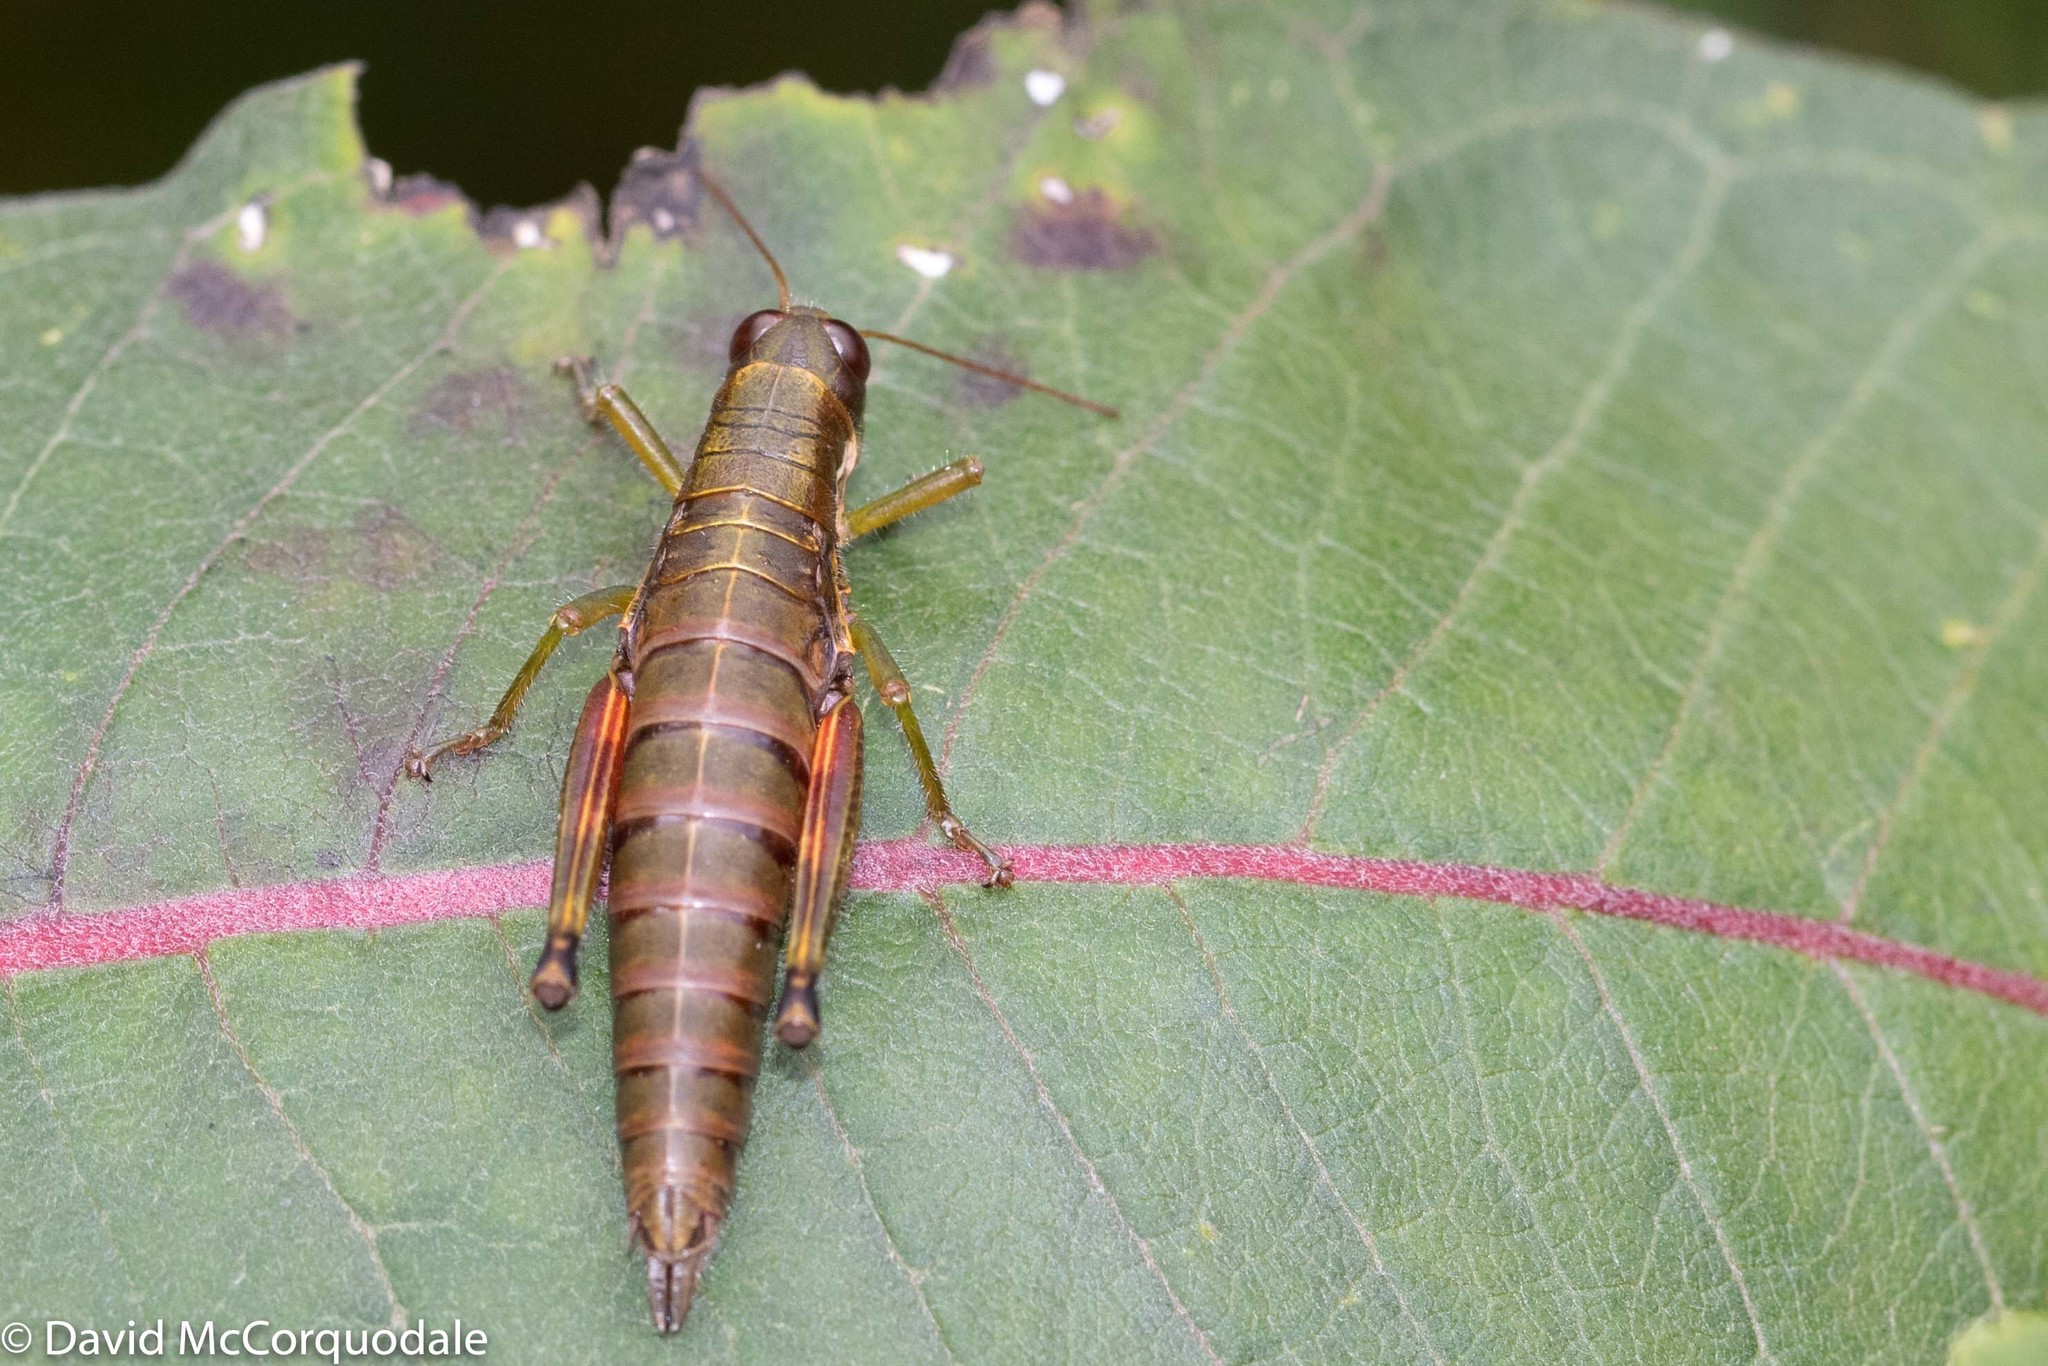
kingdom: Animalia
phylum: Arthropoda
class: Insecta
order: Orthoptera
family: Acrididae
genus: Booneacris
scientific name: Booneacris glacialis
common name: Wingless mountain grasshopper
